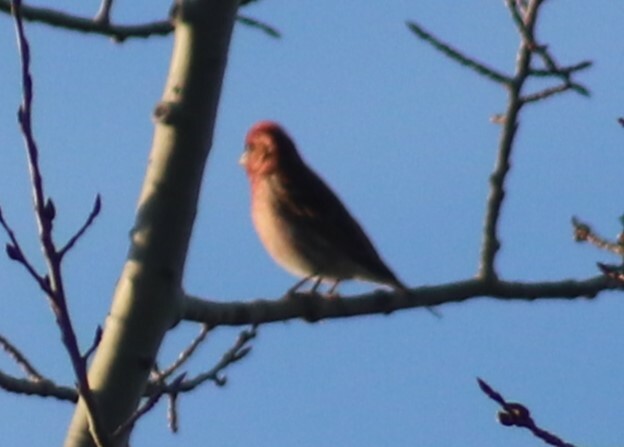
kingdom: Animalia
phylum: Chordata
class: Aves
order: Passeriformes
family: Fringillidae
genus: Haemorhous
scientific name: Haemorhous purpureus
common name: Purple finch
